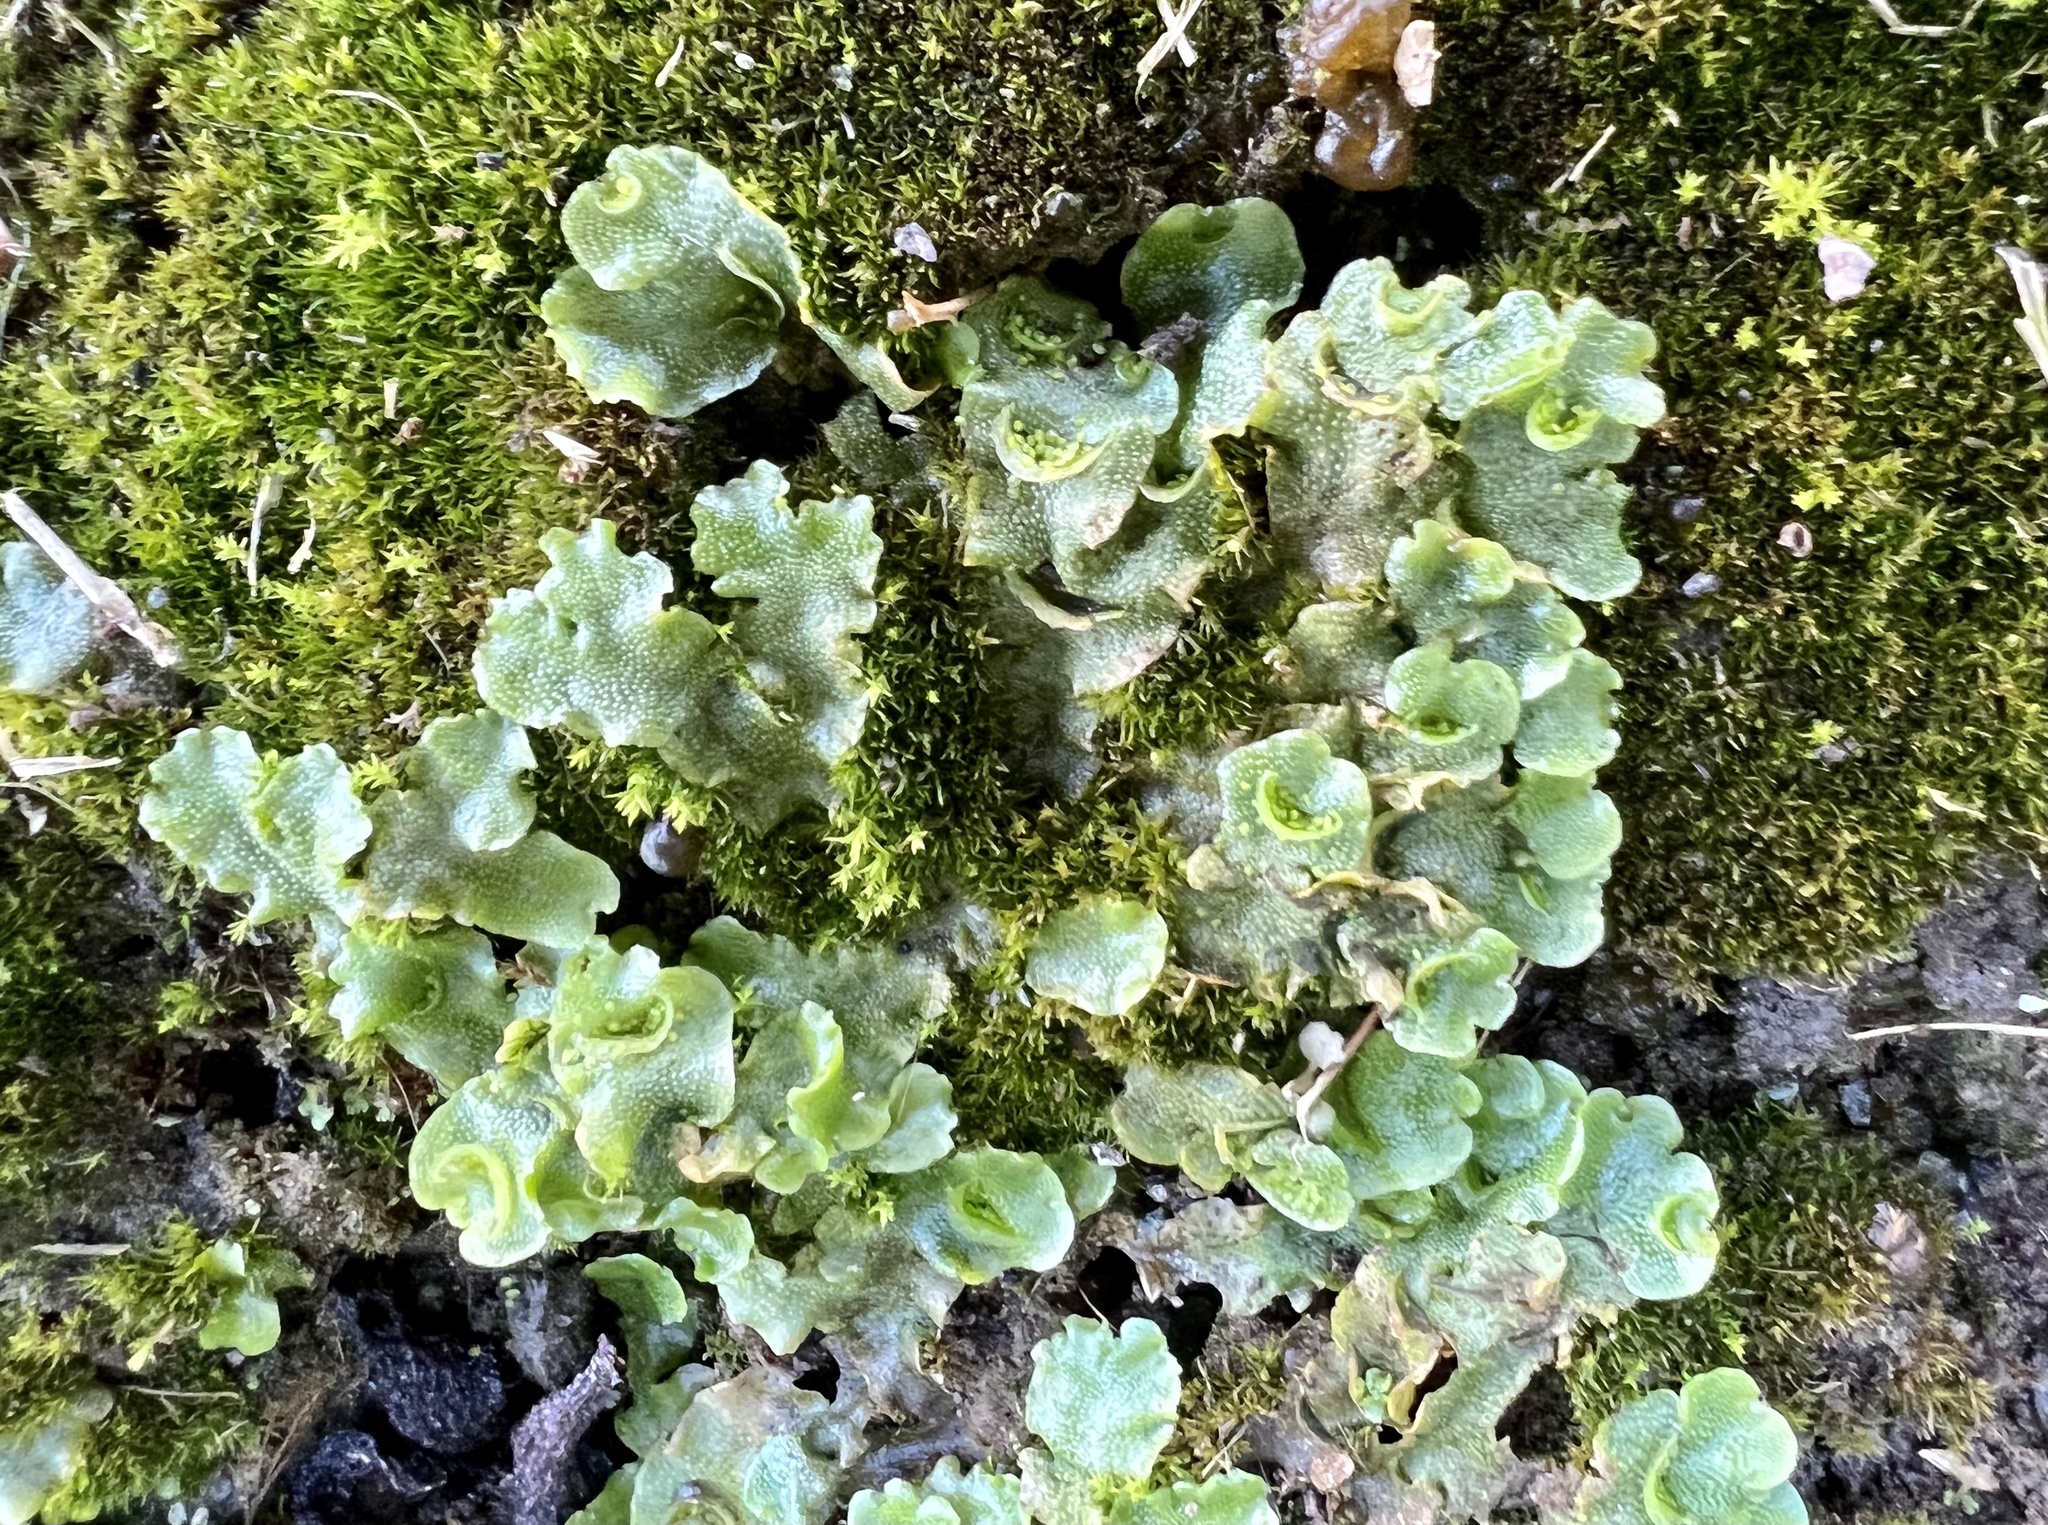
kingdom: Plantae
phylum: Marchantiophyta
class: Marchantiopsida
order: Lunulariales
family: Lunulariaceae
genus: Lunularia
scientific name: Lunularia cruciata
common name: Crescent-cup liverwort
